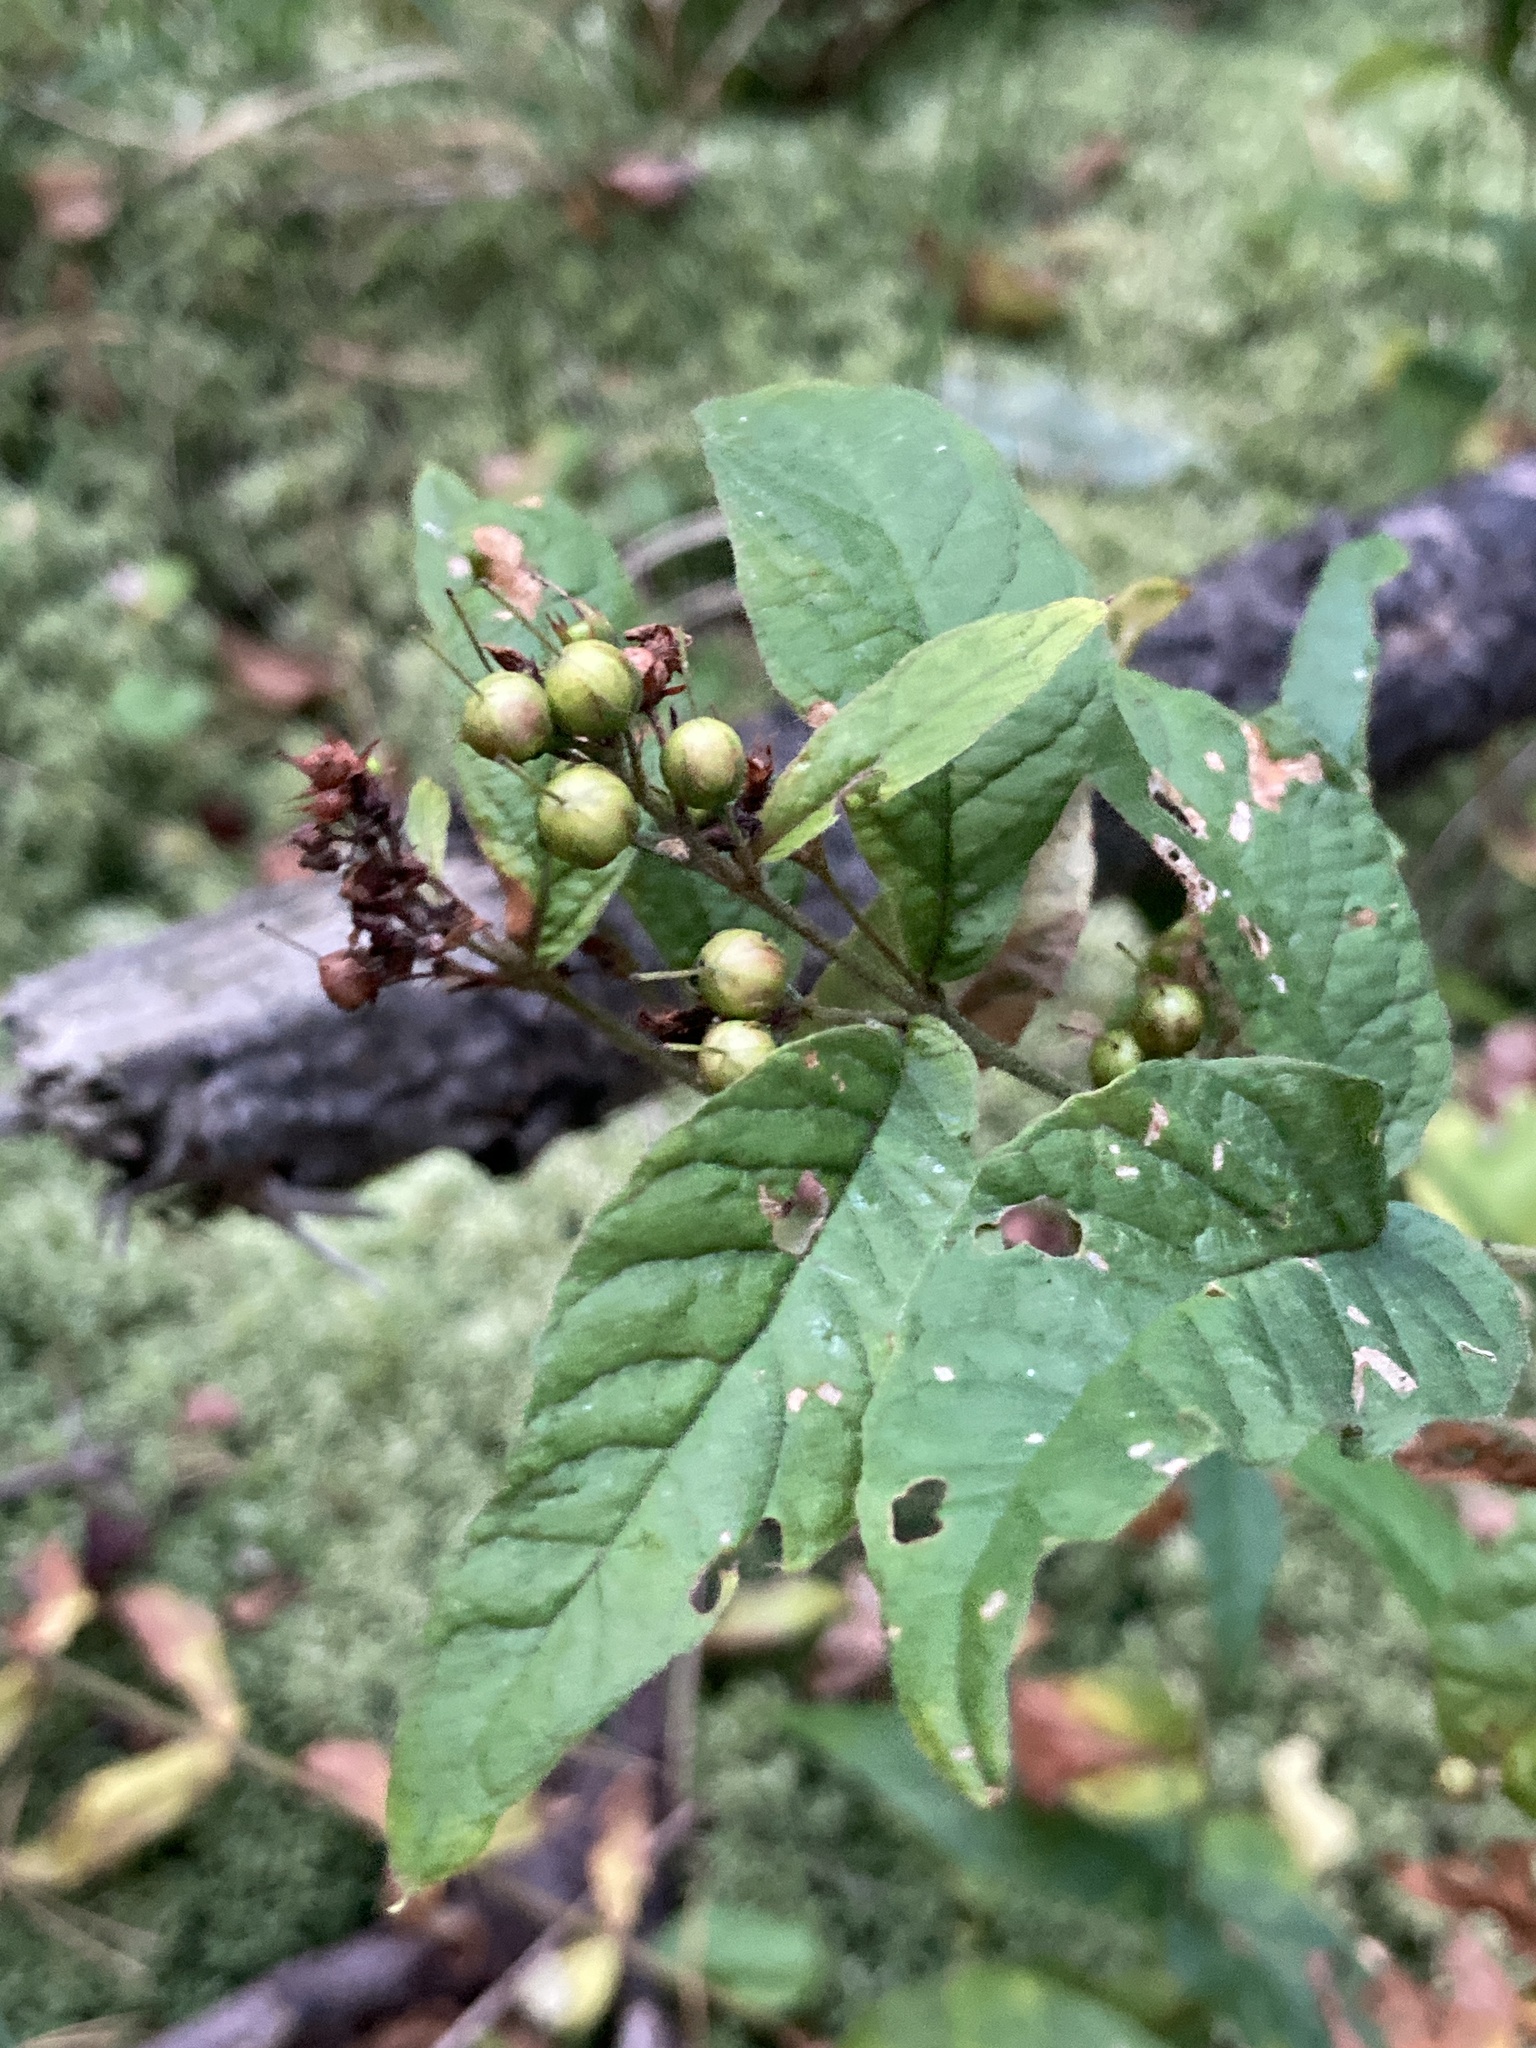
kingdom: Plantae
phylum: Tracheophyta
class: Magnoliopsida
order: Ericales
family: Primulaceae
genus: Lysimachia
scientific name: Lysimachia vulgaris
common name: Yellow loosestrife
